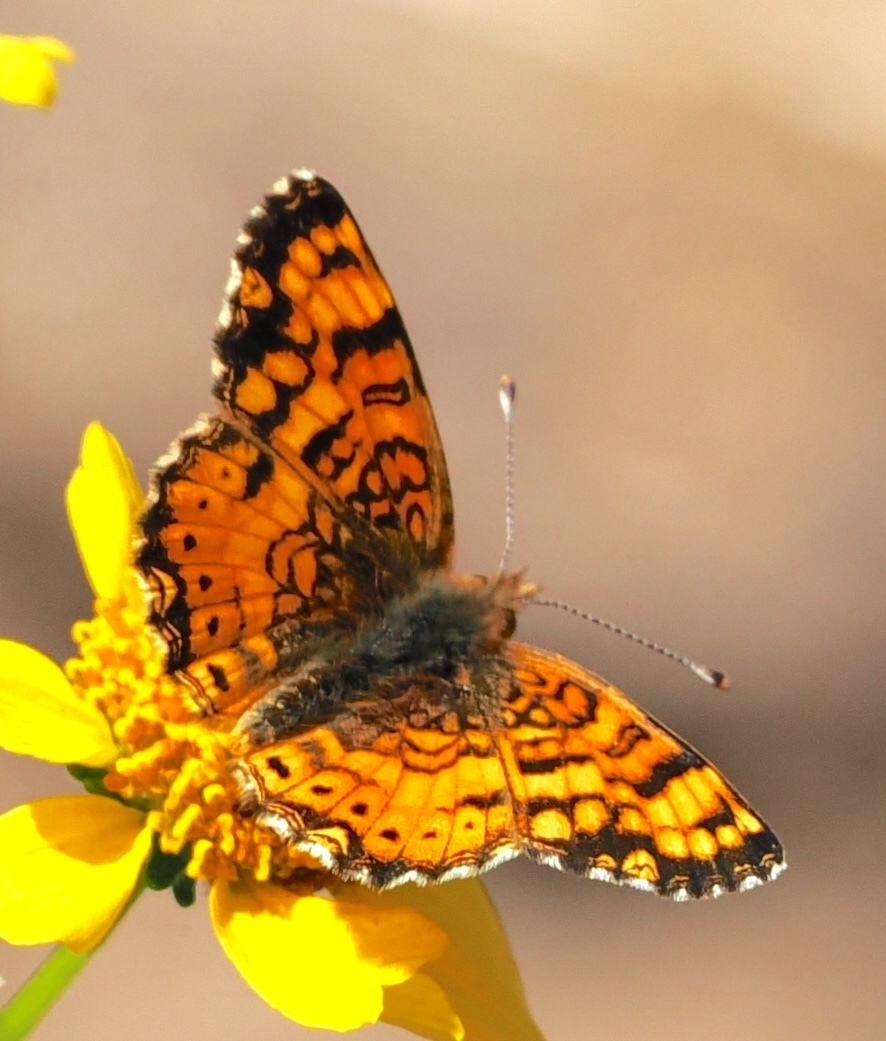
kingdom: Animalia
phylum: Arthropoda
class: Insecta
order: Lepidoptera
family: Nymphalidae
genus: Eresia
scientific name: Eresia aveyrona
